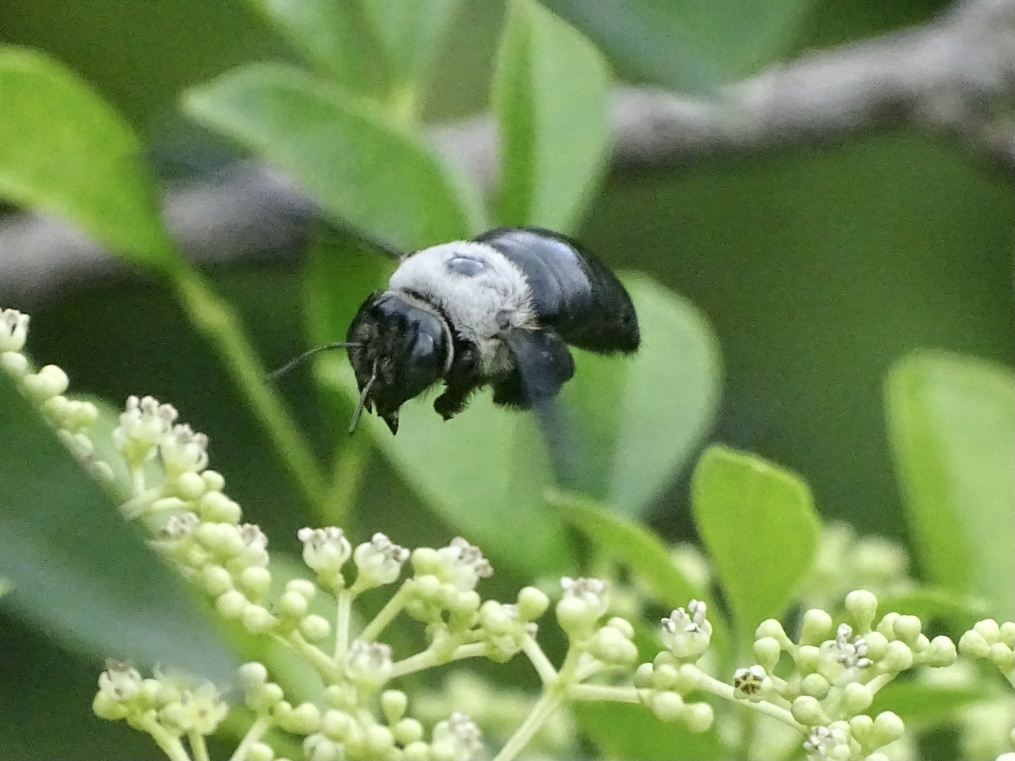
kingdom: Animalia
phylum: Arthropoda
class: Insecta
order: Hymenoptera
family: Apidae
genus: Xylocopa
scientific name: Xylocopa phalothorax
